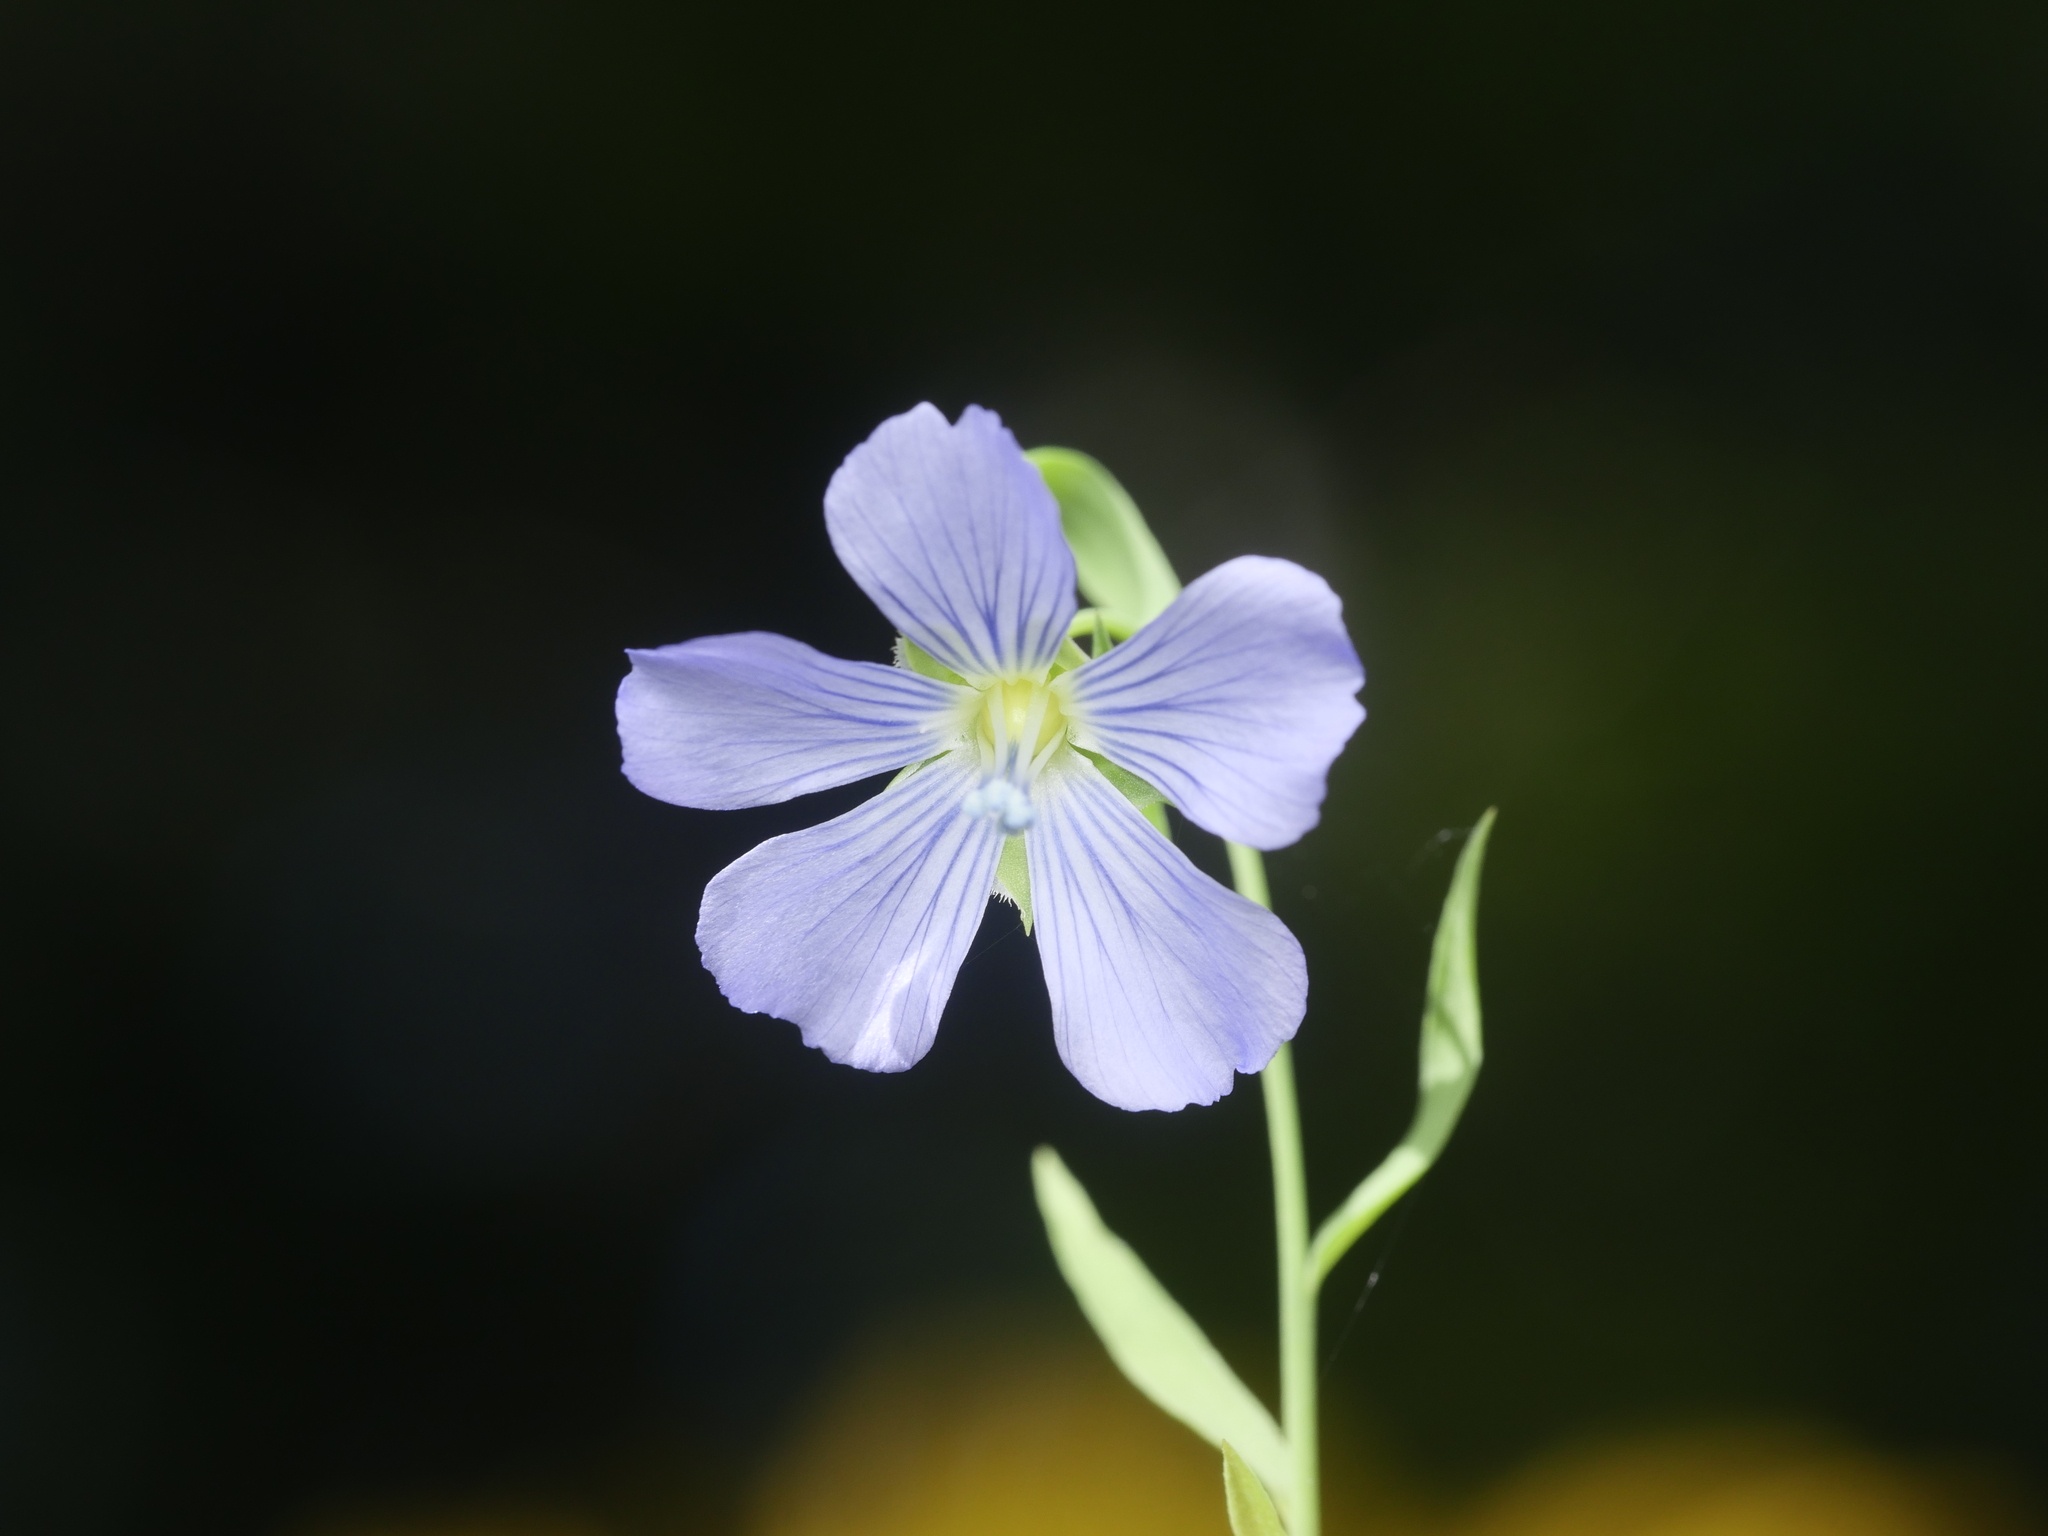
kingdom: Plantae
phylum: Tracheophyta
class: Magnoliopsida
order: Malpighiales
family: Linaceae
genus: Linum
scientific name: Linum usitatissimum
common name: Flax
